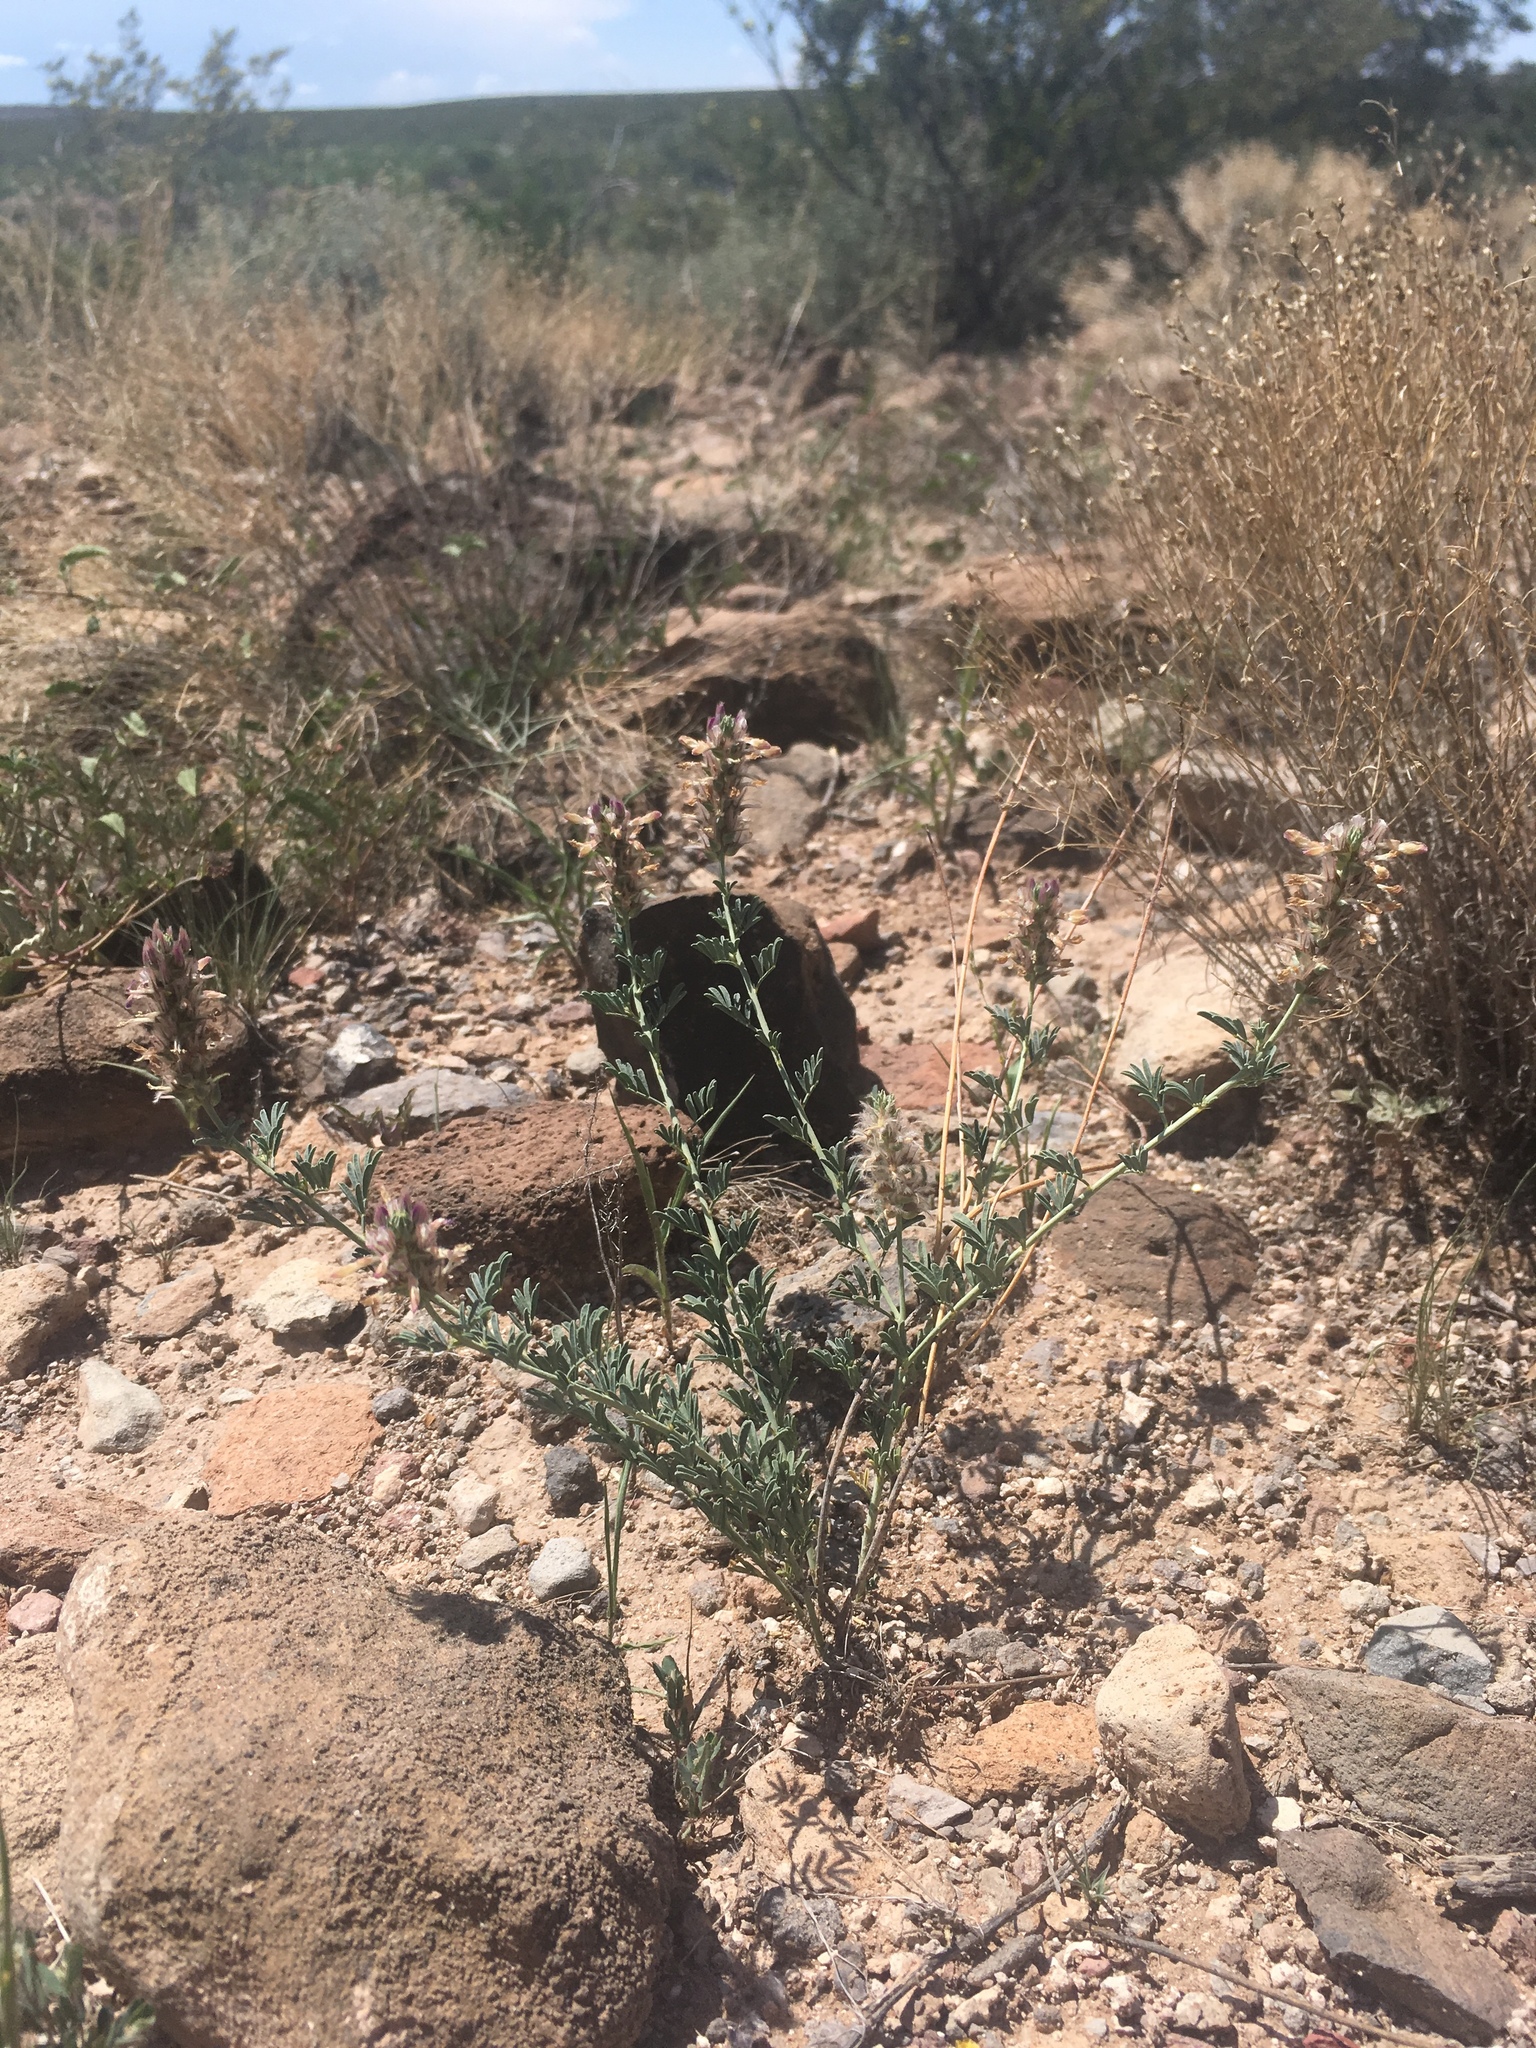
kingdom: Plantae
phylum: Tracheophyta
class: Magnoliopsida
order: Fabales
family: Fabaceae
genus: Dalea
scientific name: Dalea pogonathera
